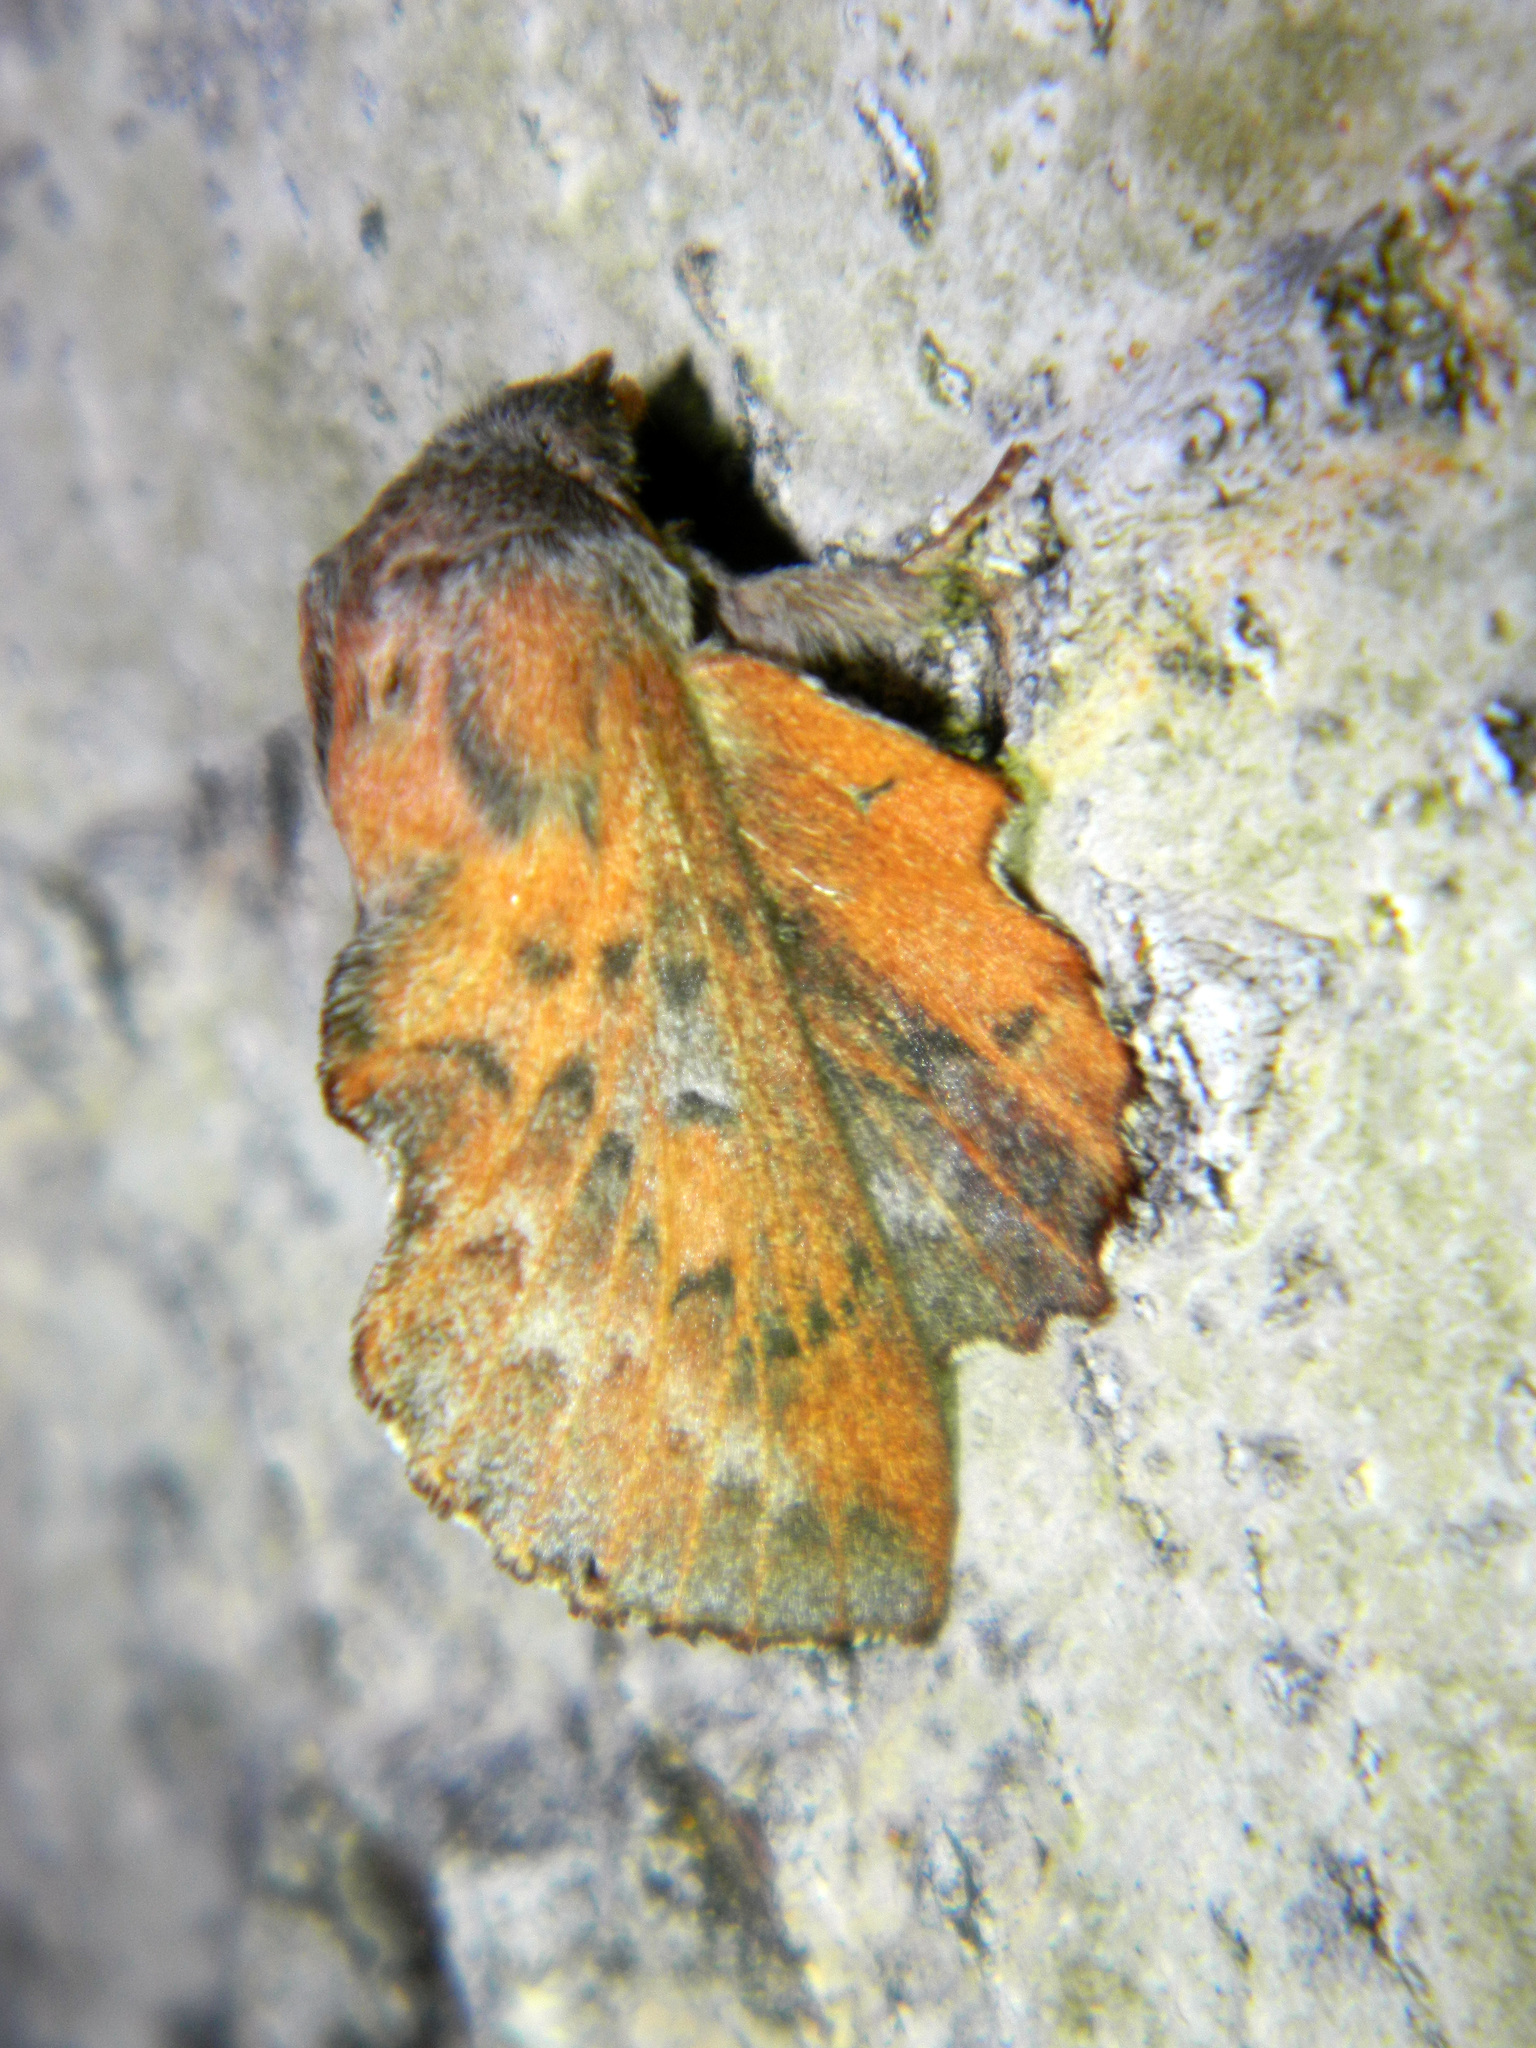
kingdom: Animalia
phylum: Arthropoda
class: Insecta
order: Lepidoptera
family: Lasiocampidae
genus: Phyllodesma
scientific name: Phyllodesma americana
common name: American lappet moth
